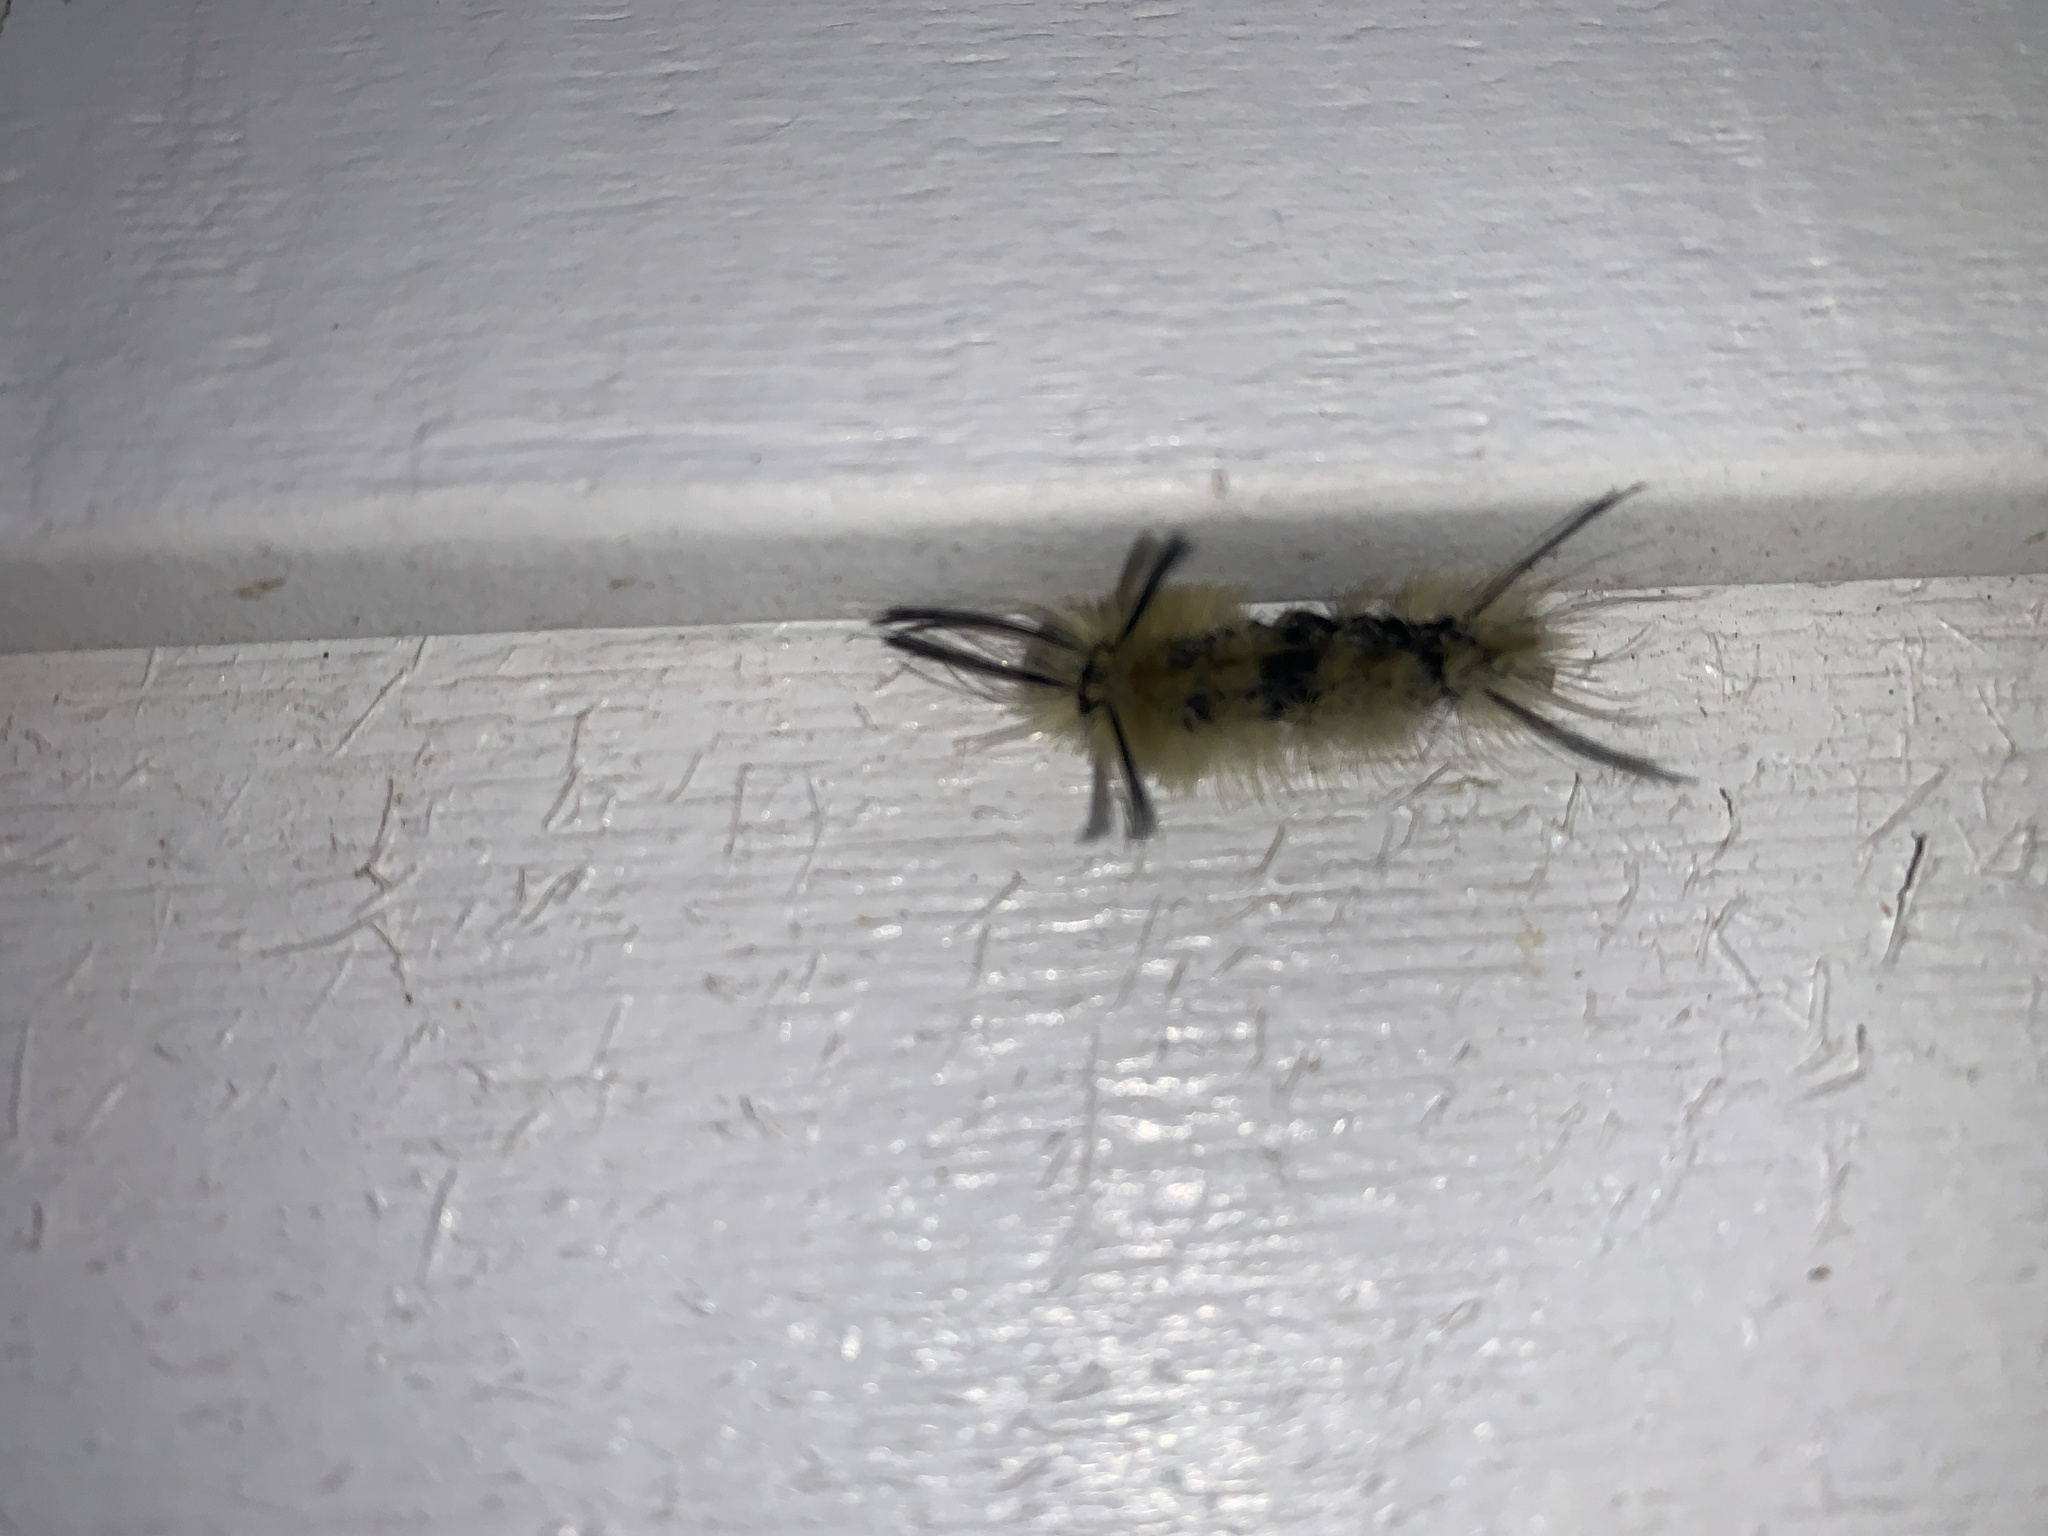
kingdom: Animalia
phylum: Arthropoda
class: Insecta
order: Lepidoptera
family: Erebidae
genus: Halysidota
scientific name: Halysidota tessellaris
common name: Banded tussock moth
